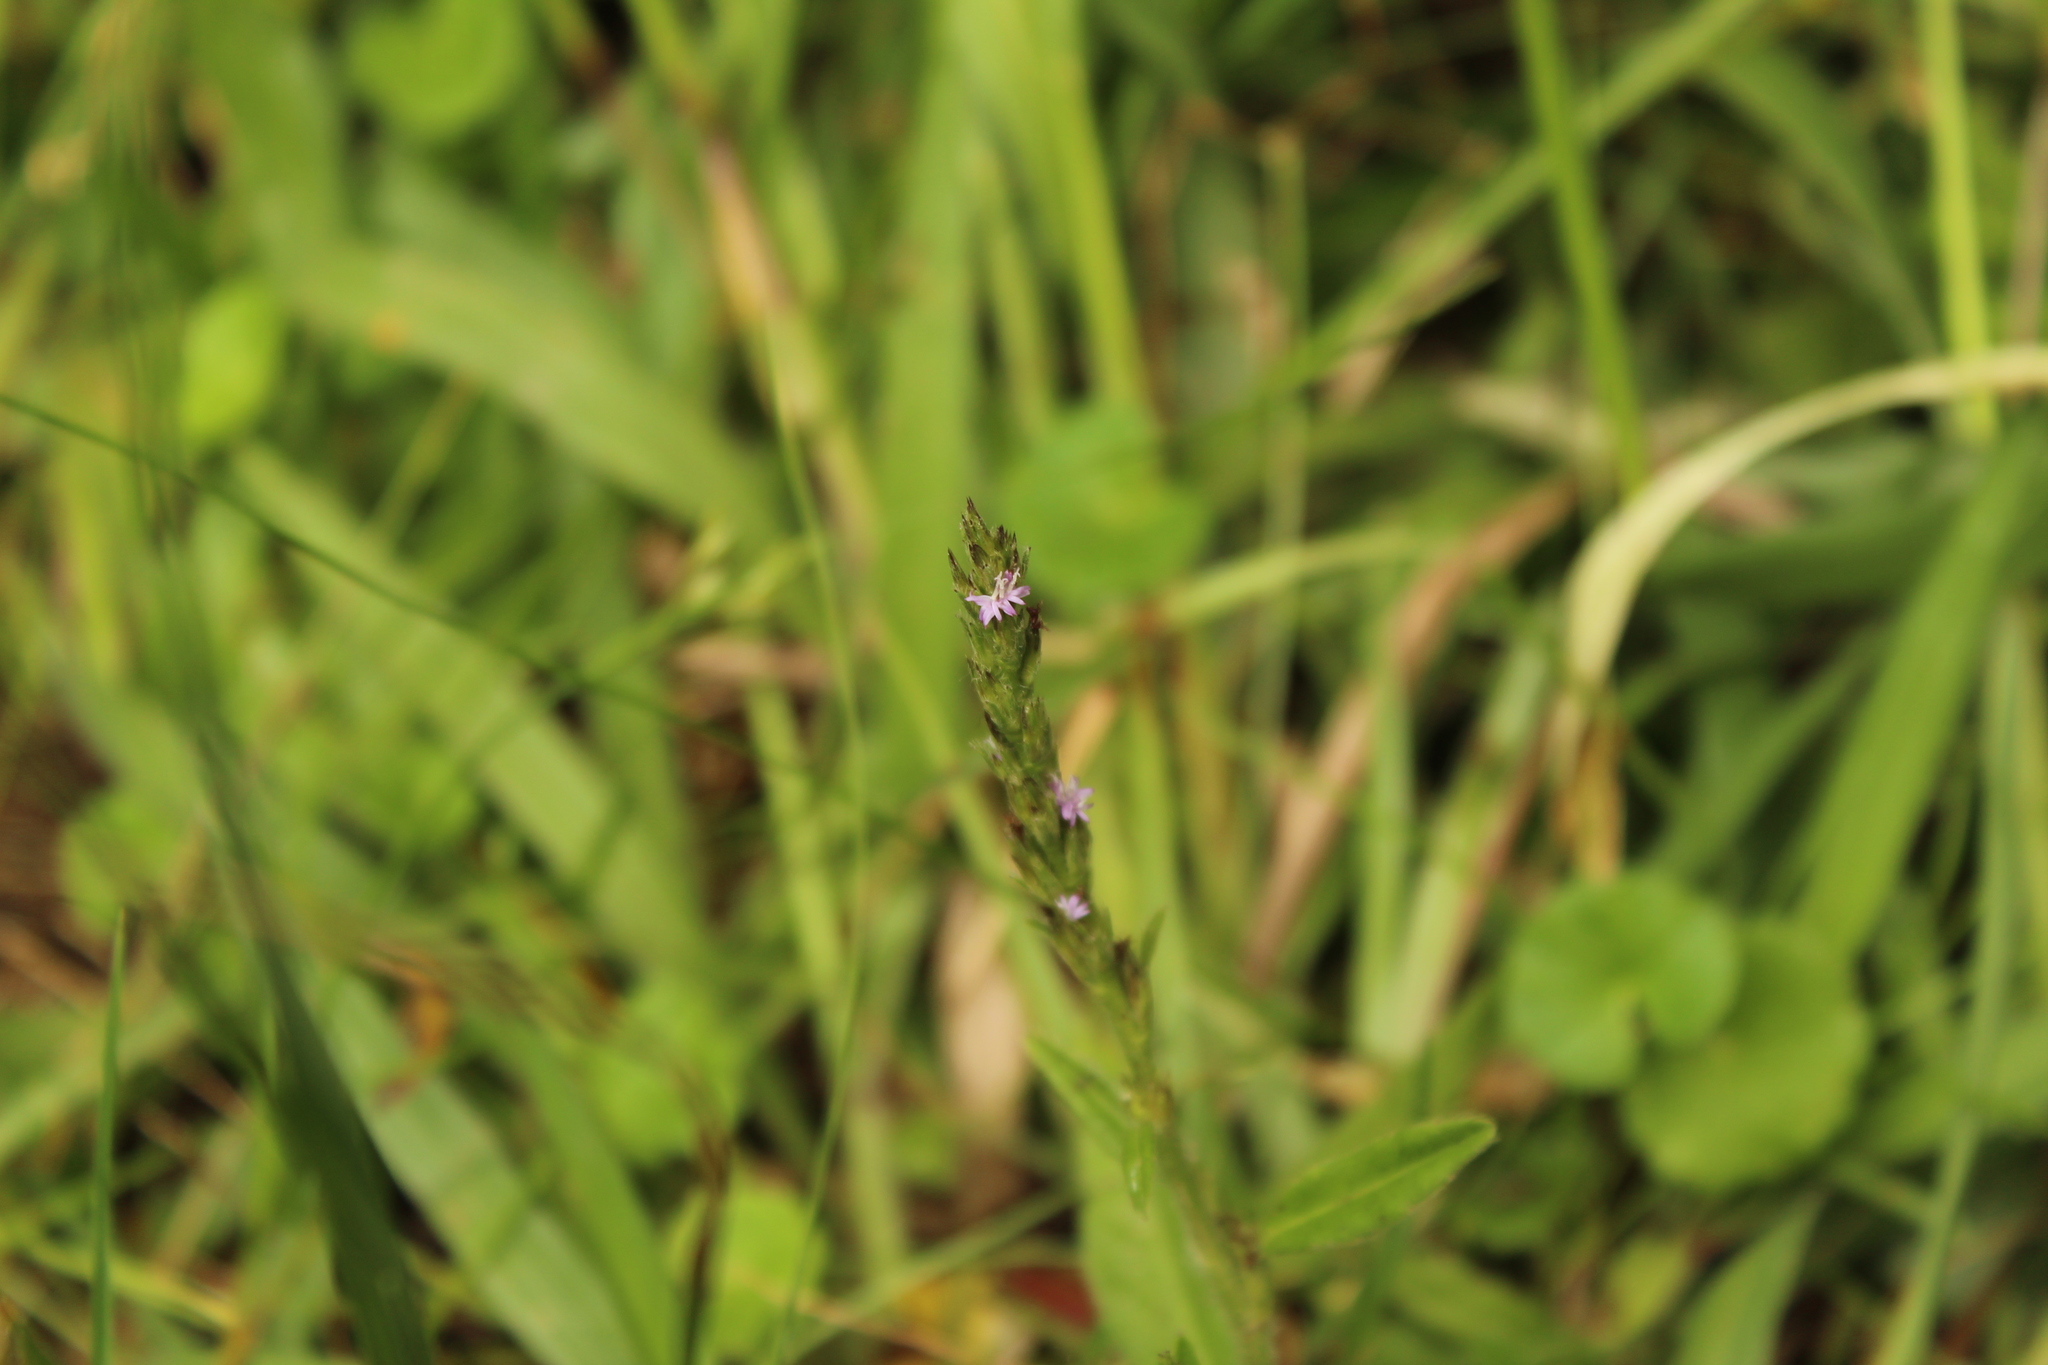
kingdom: Plantae
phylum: Tracheophyta
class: Magnoliopsida
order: Asterales
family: Asteraceae
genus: Pseudelephantopus
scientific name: Pseudelephantopus spiralis
